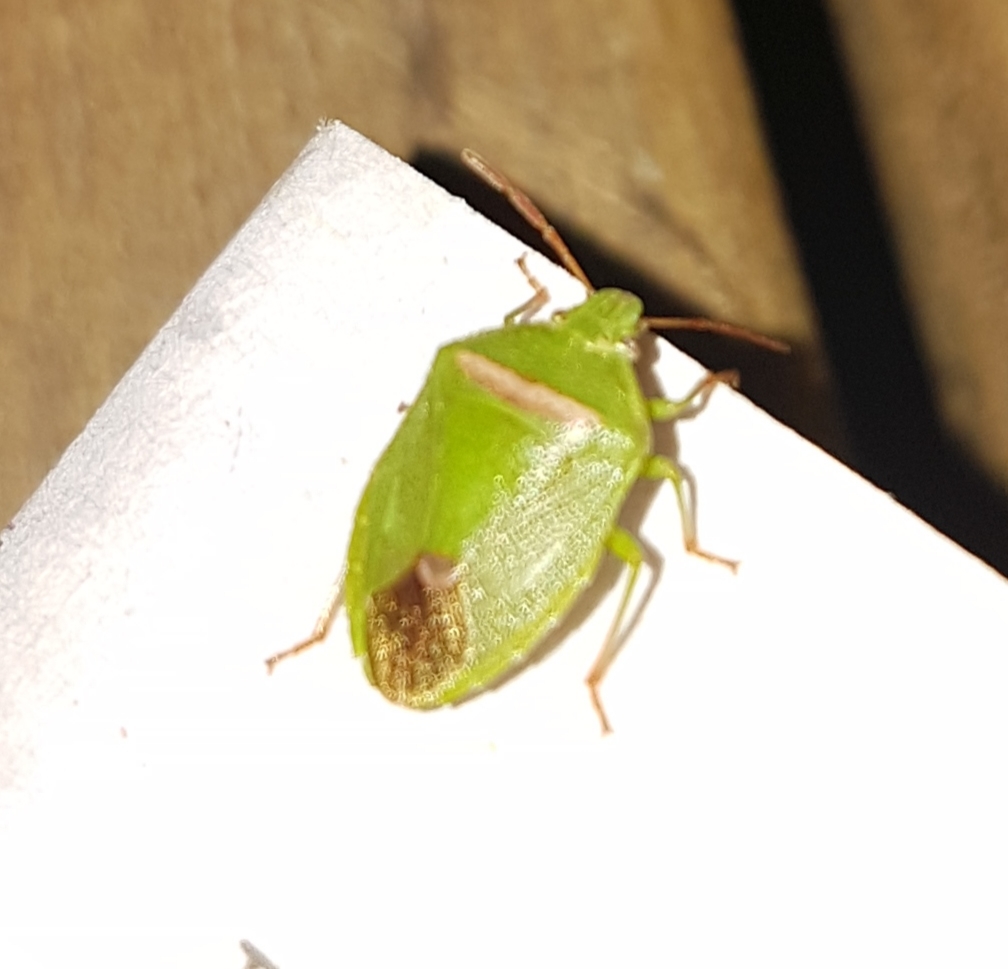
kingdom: Animalia
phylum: Arthropoda
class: Insecta
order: Hemiptera
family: Pentatomidae
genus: Ocirrhoe
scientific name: Ocirrhoe
